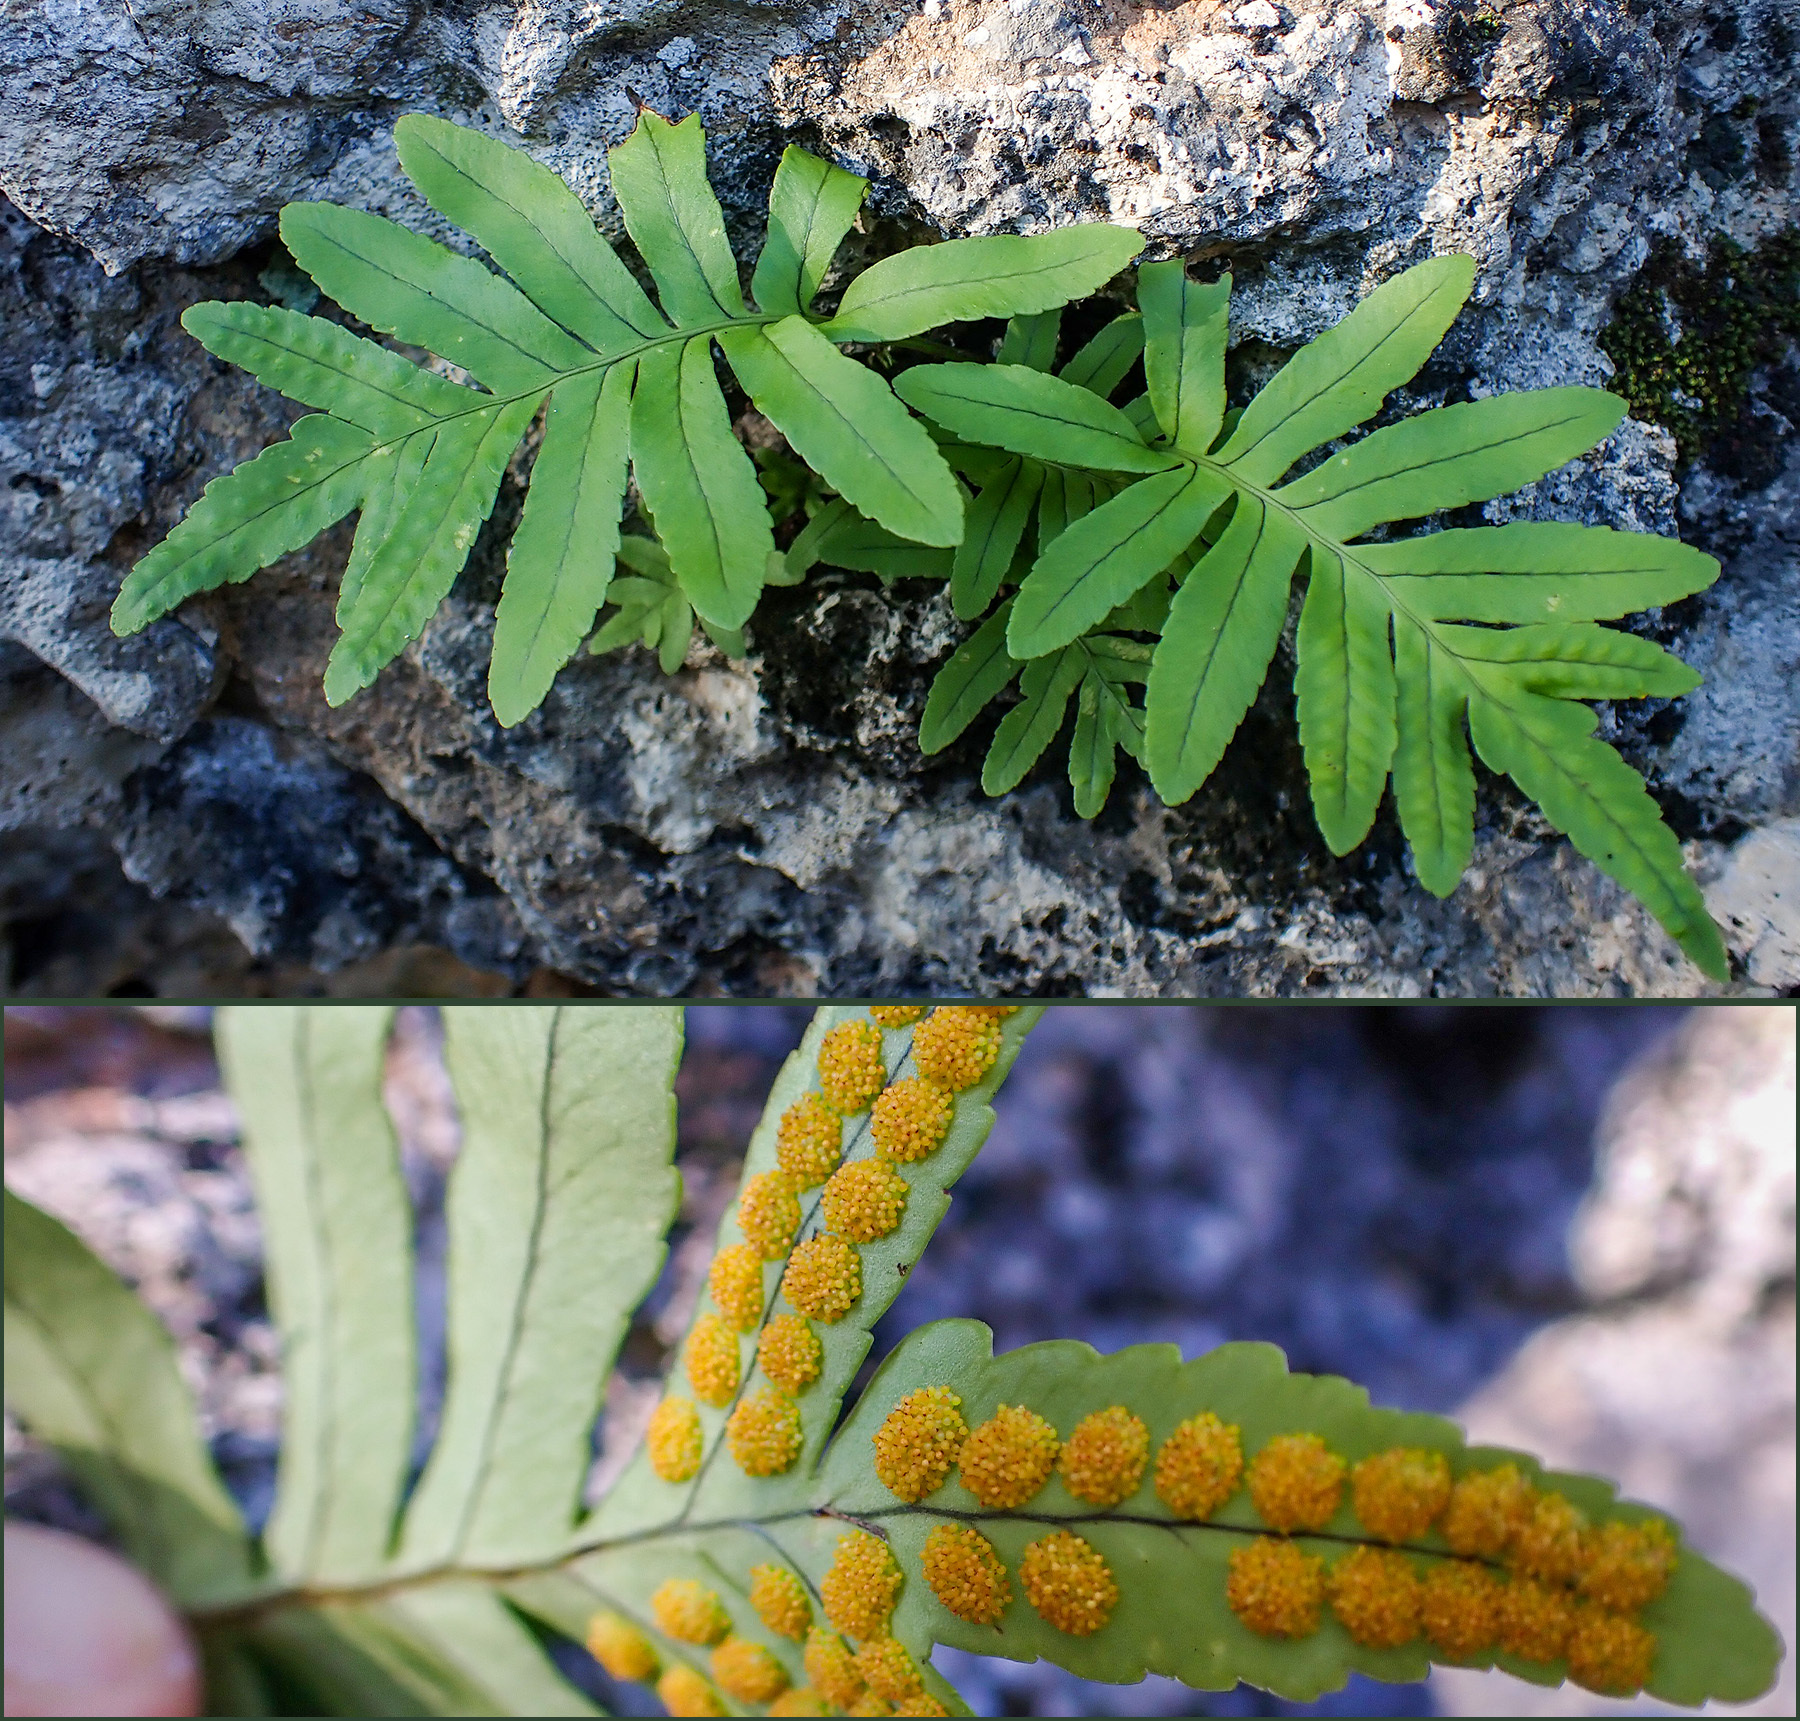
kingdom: Plantae
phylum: Tracheophyta
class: Polypodiopsida
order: Polypodiales
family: Polypodiaceae
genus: Polypodium
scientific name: Polypodium cambricum
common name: Southern polypody
